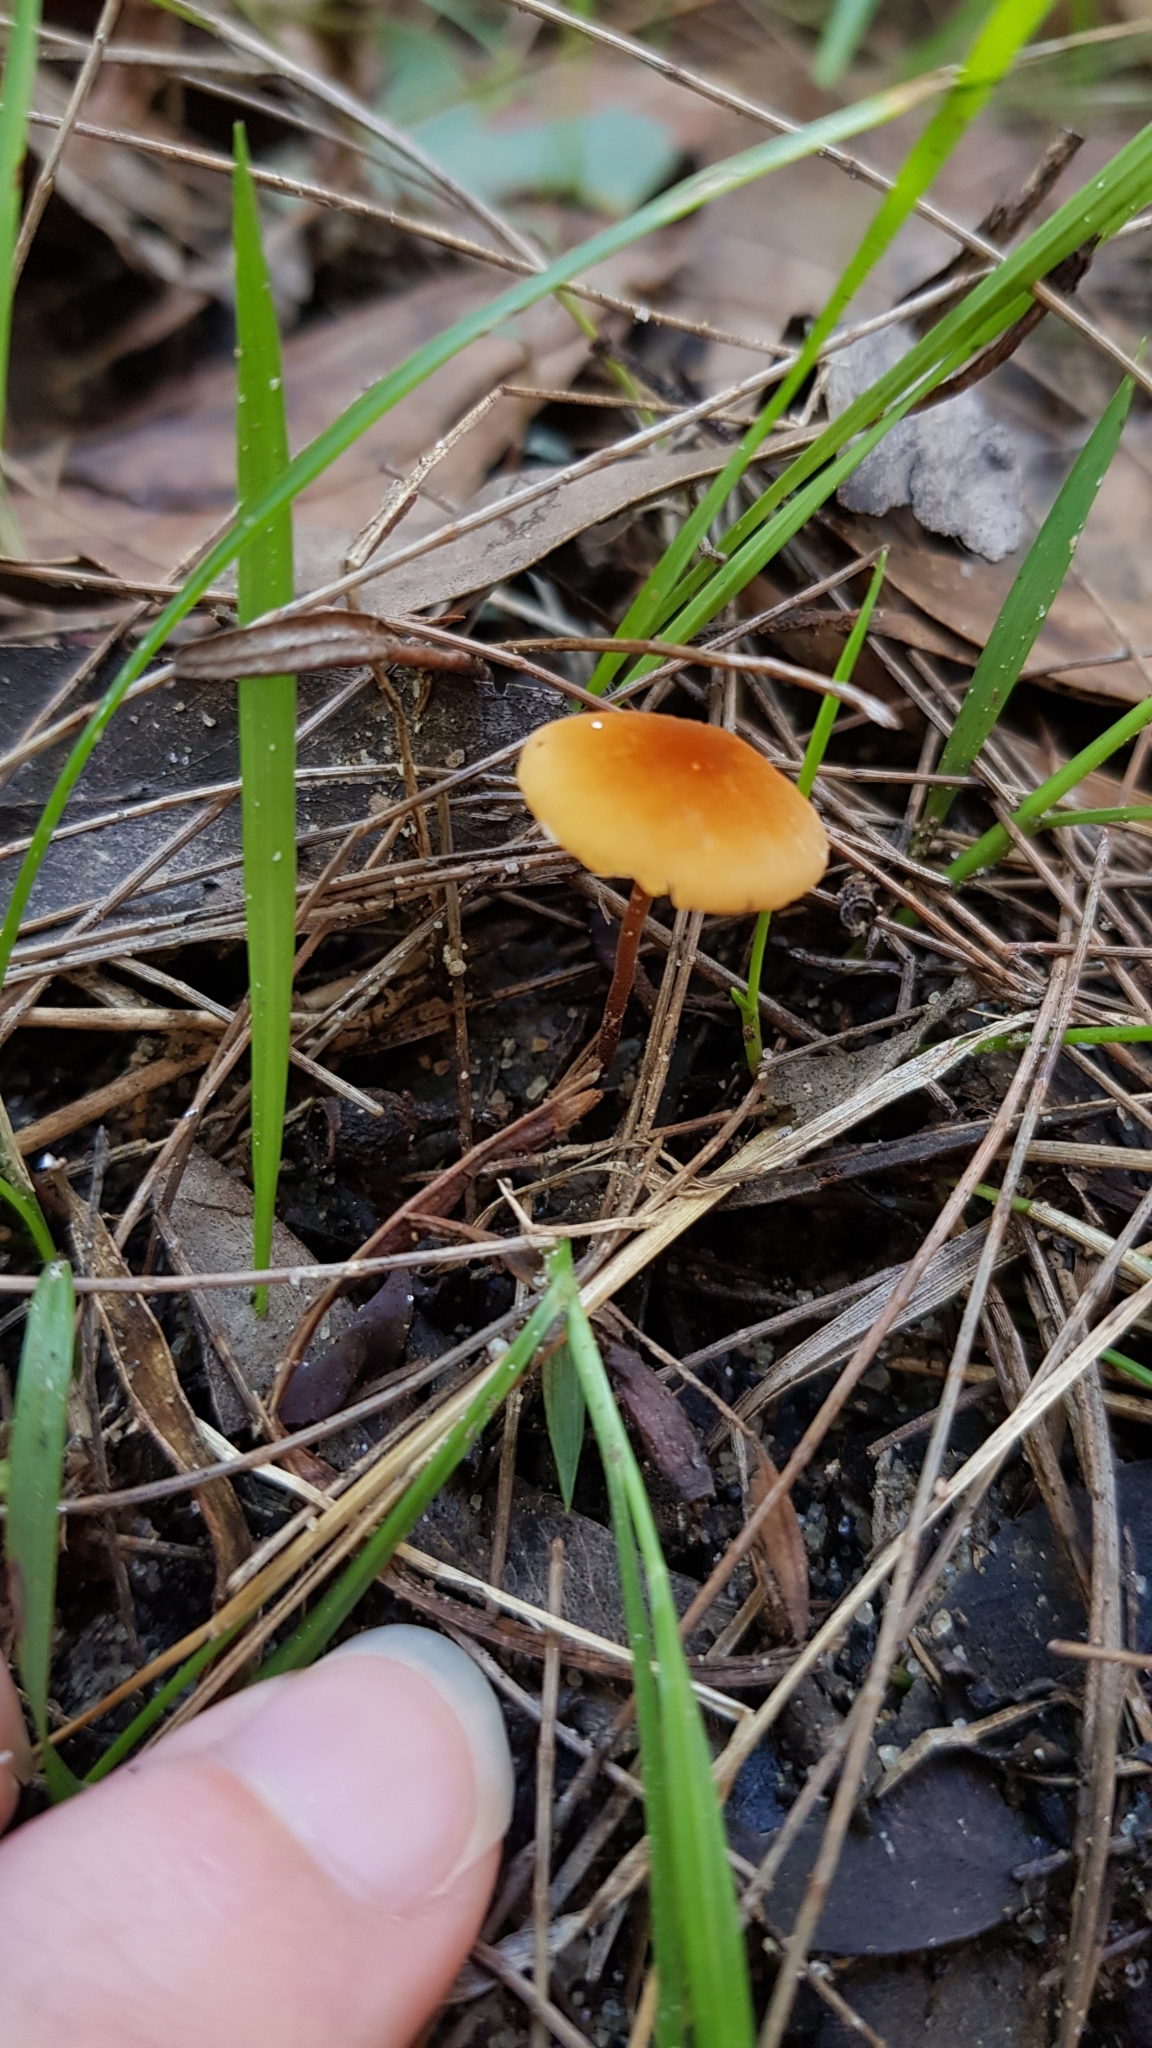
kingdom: Fungi
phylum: Basidiomycota
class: Agaricomycetes
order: Agaricales
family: Marasmiaceae
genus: Marasmius
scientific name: Marasmius elegans
